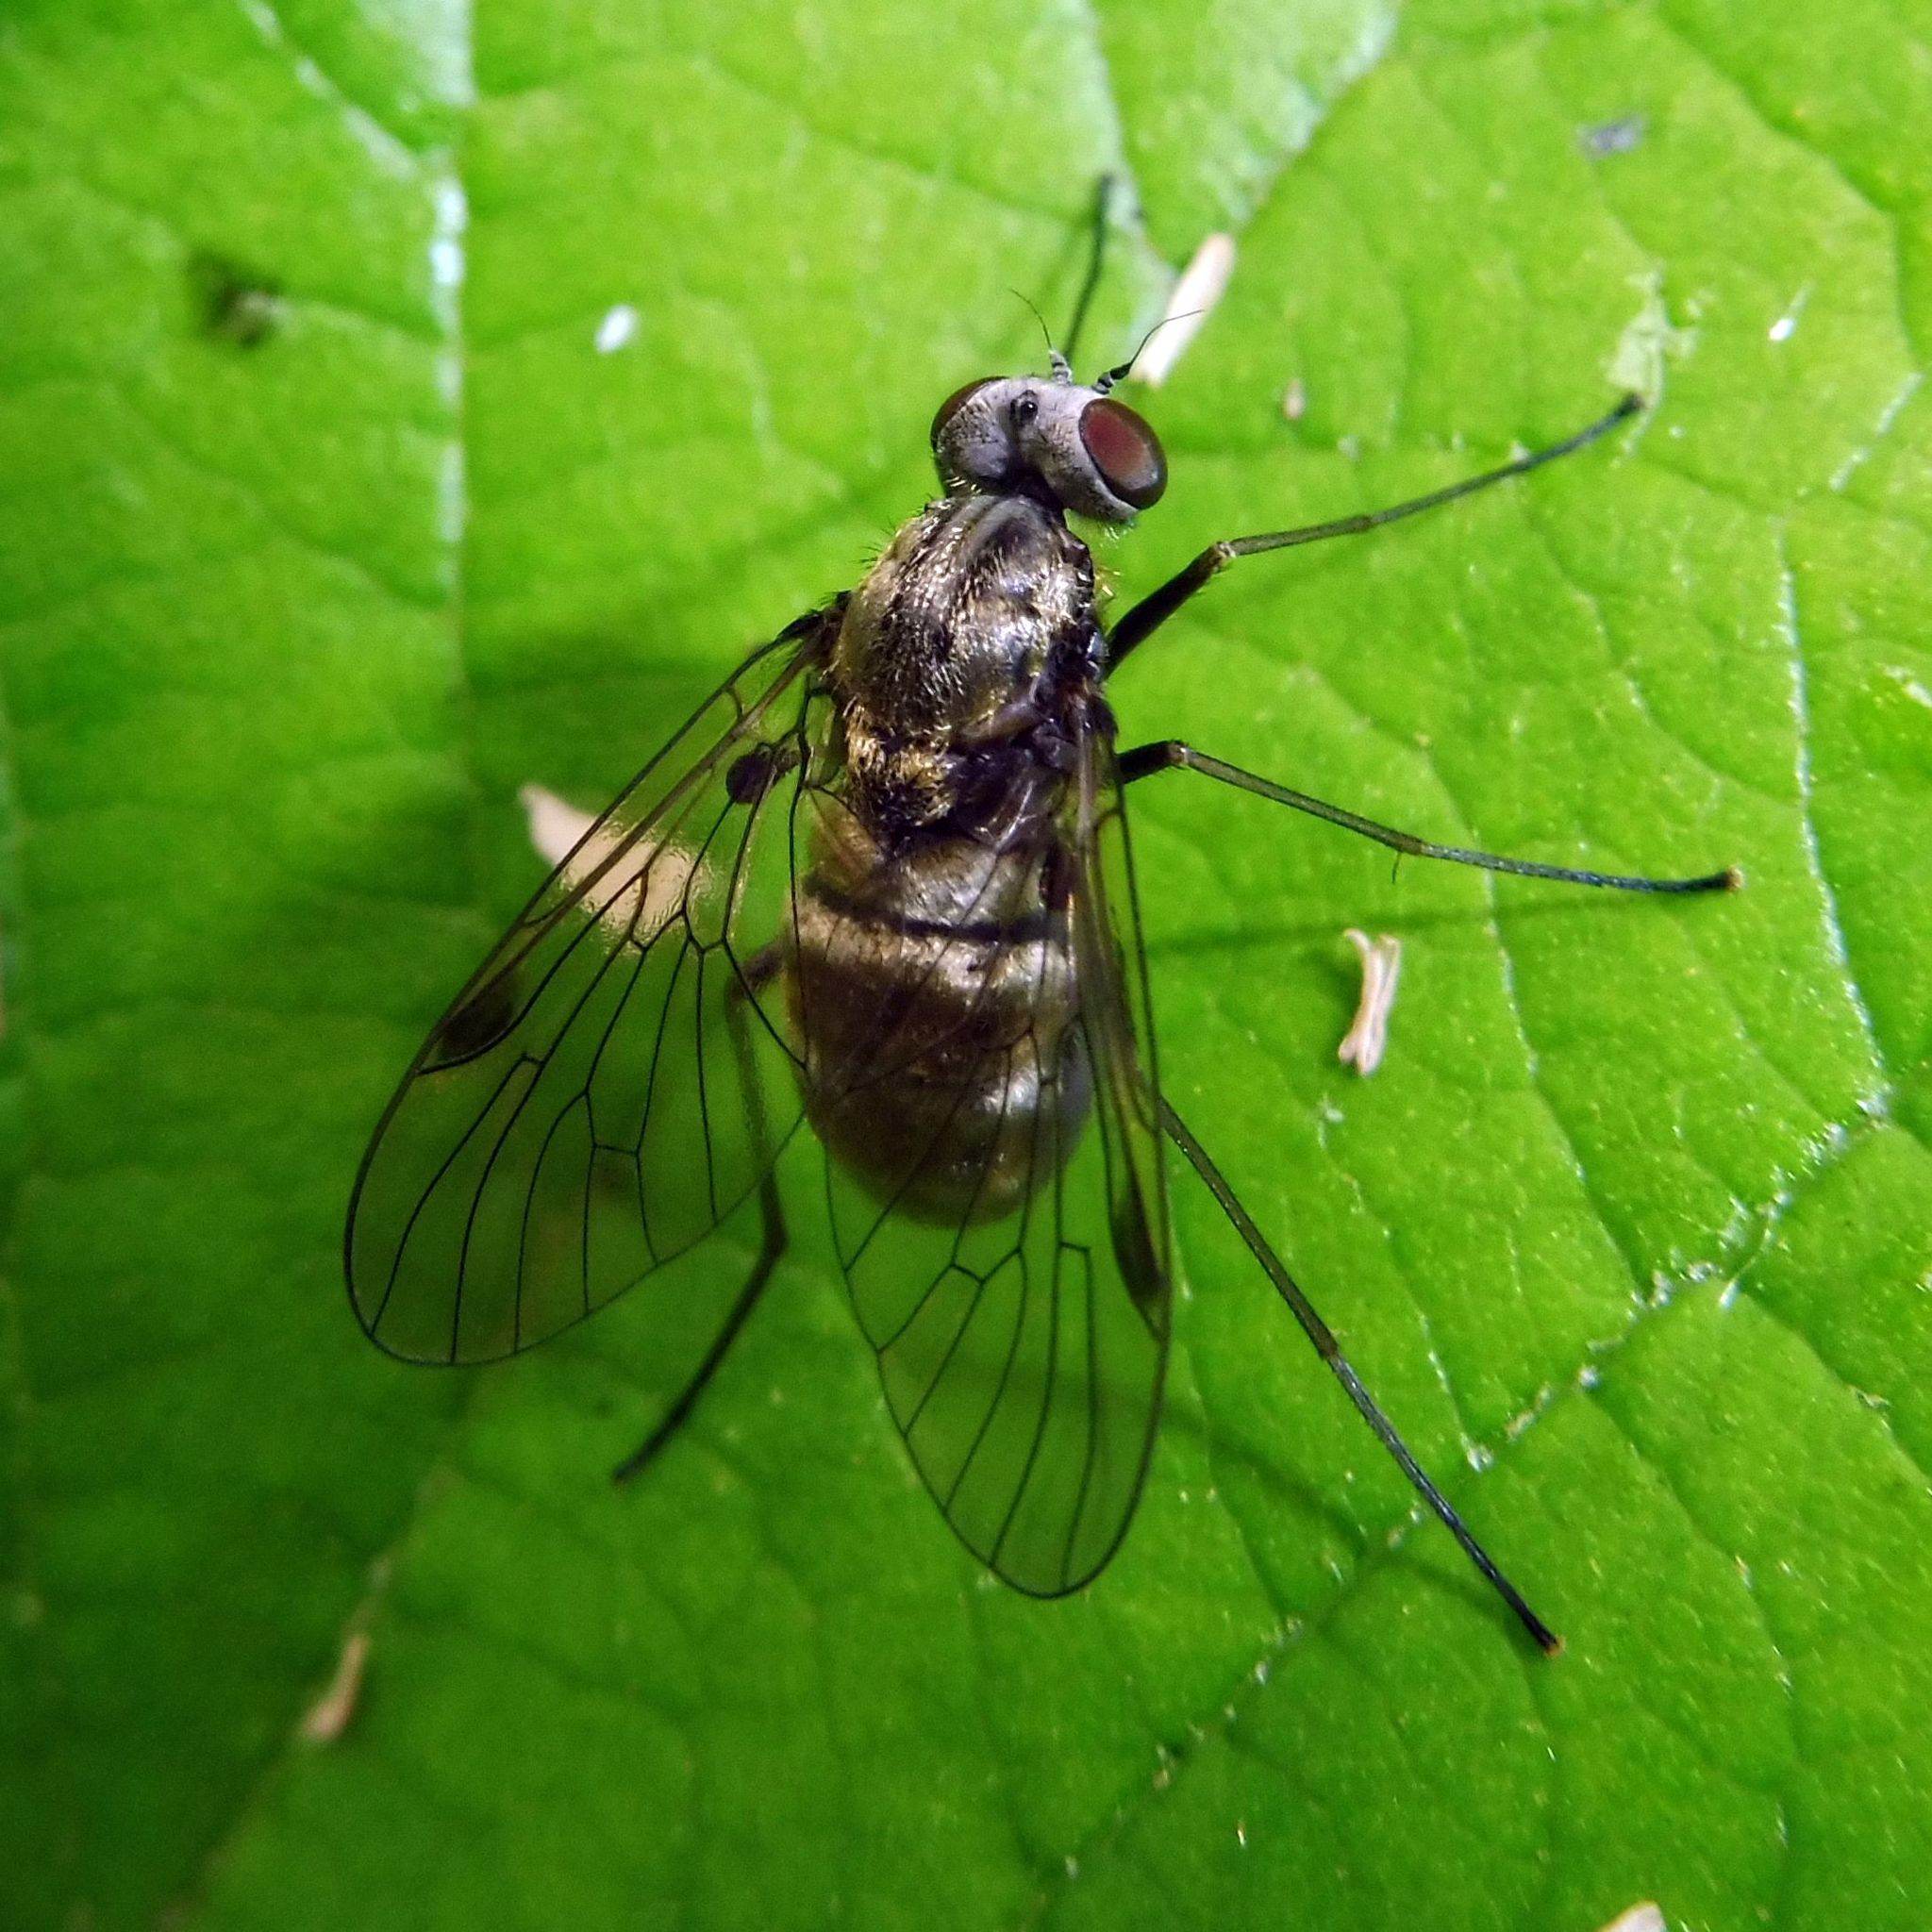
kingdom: Animalia
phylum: Arthropoda
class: Insecta
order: Diptera
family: Rhagionidae
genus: Chrysopilus
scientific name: Chrysopilus cristatus
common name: Black snipefly
